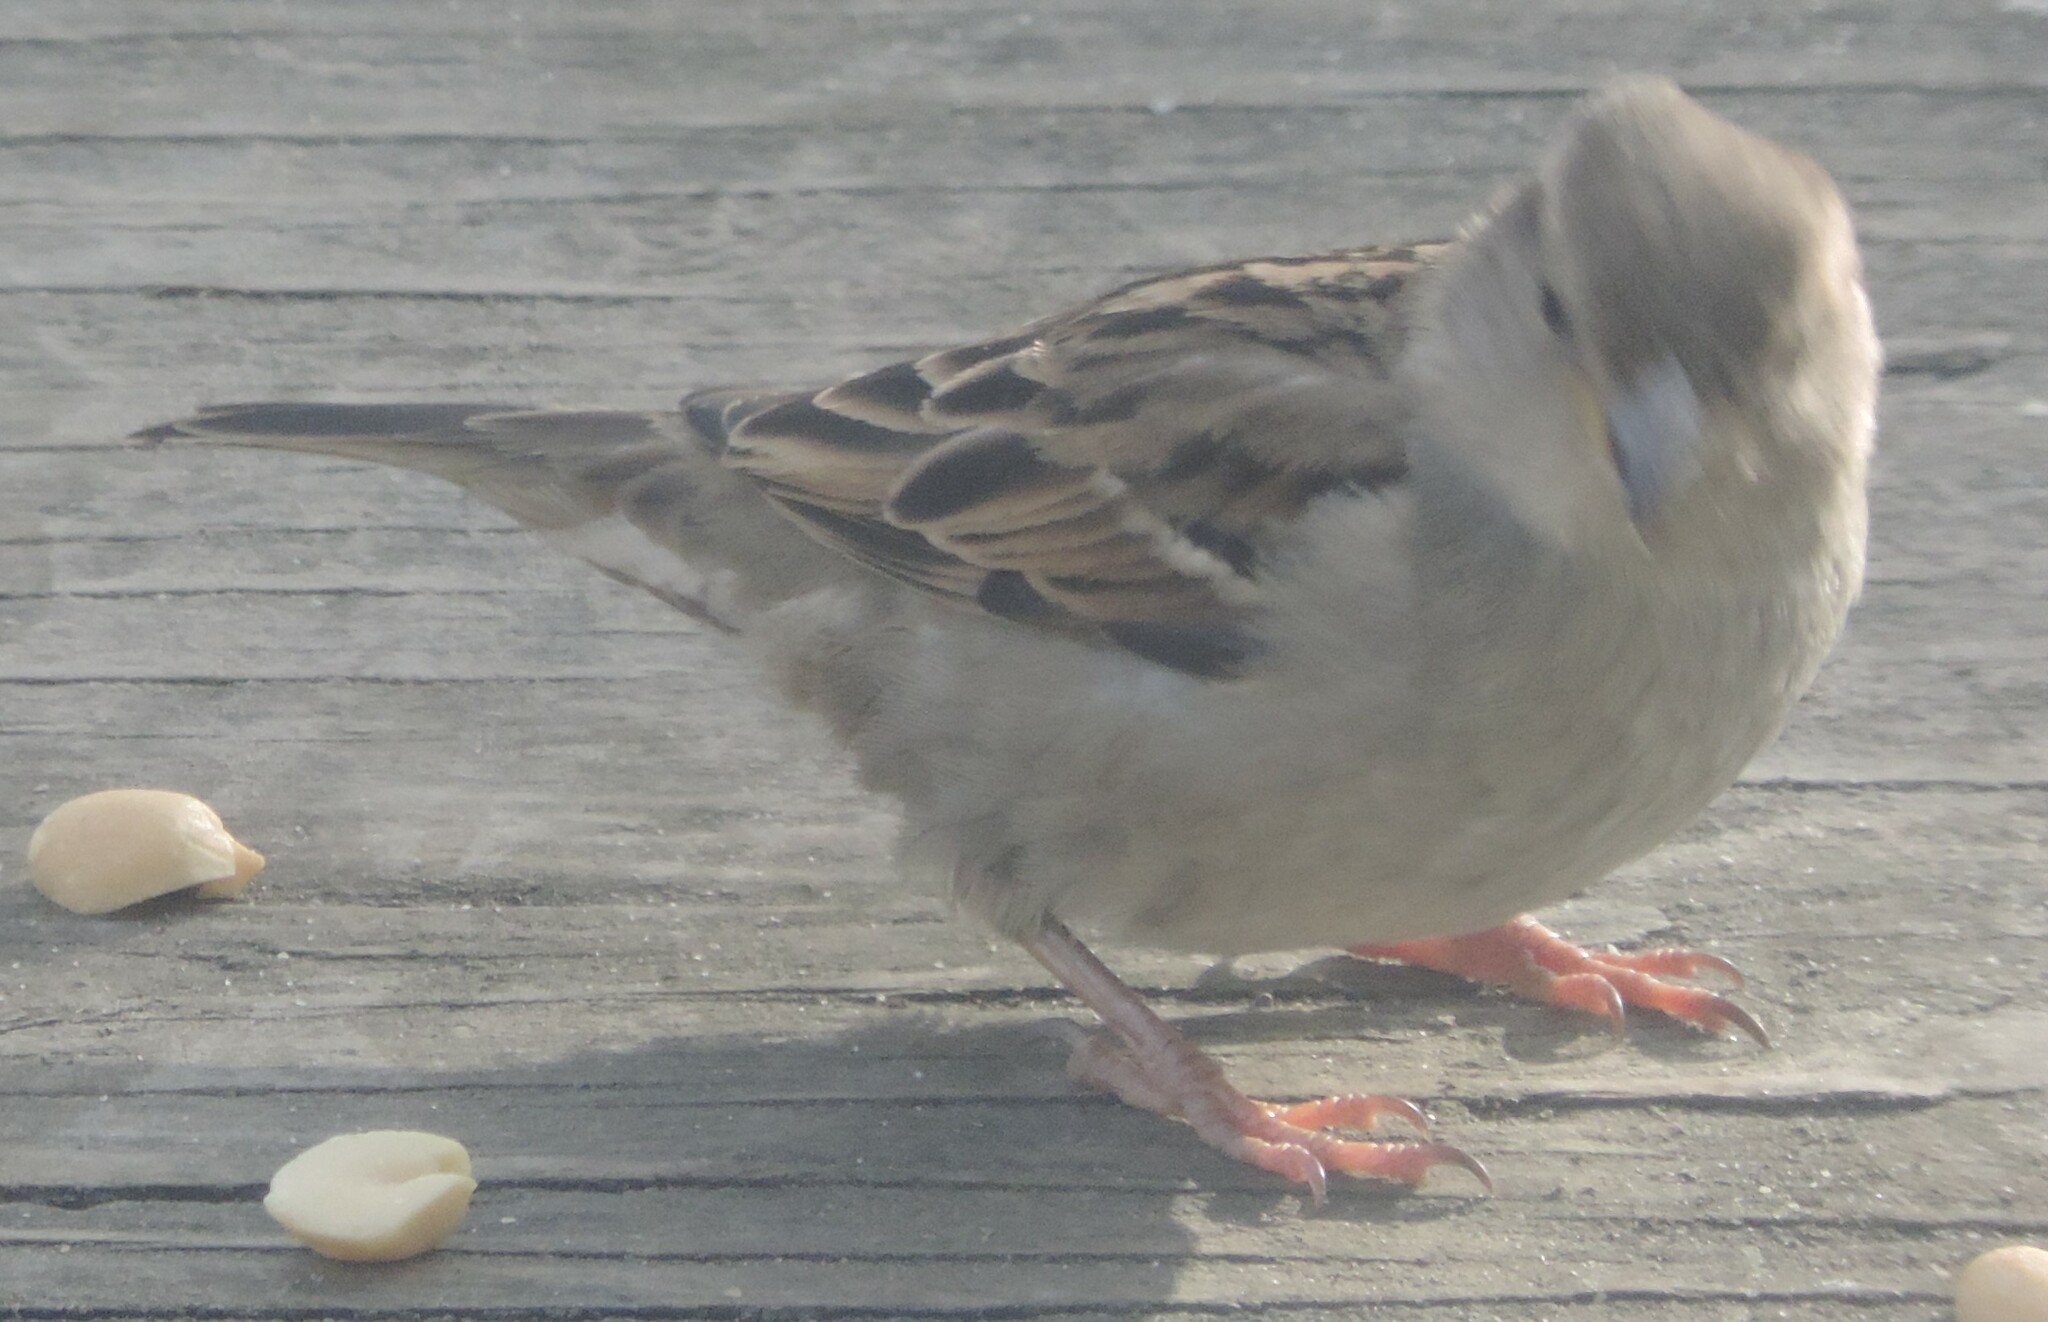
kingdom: Animalia
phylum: Chordata
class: Aves
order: Passeriformes
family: Passeridae
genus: Passer
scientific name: Passer domesticus
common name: House sparrow
